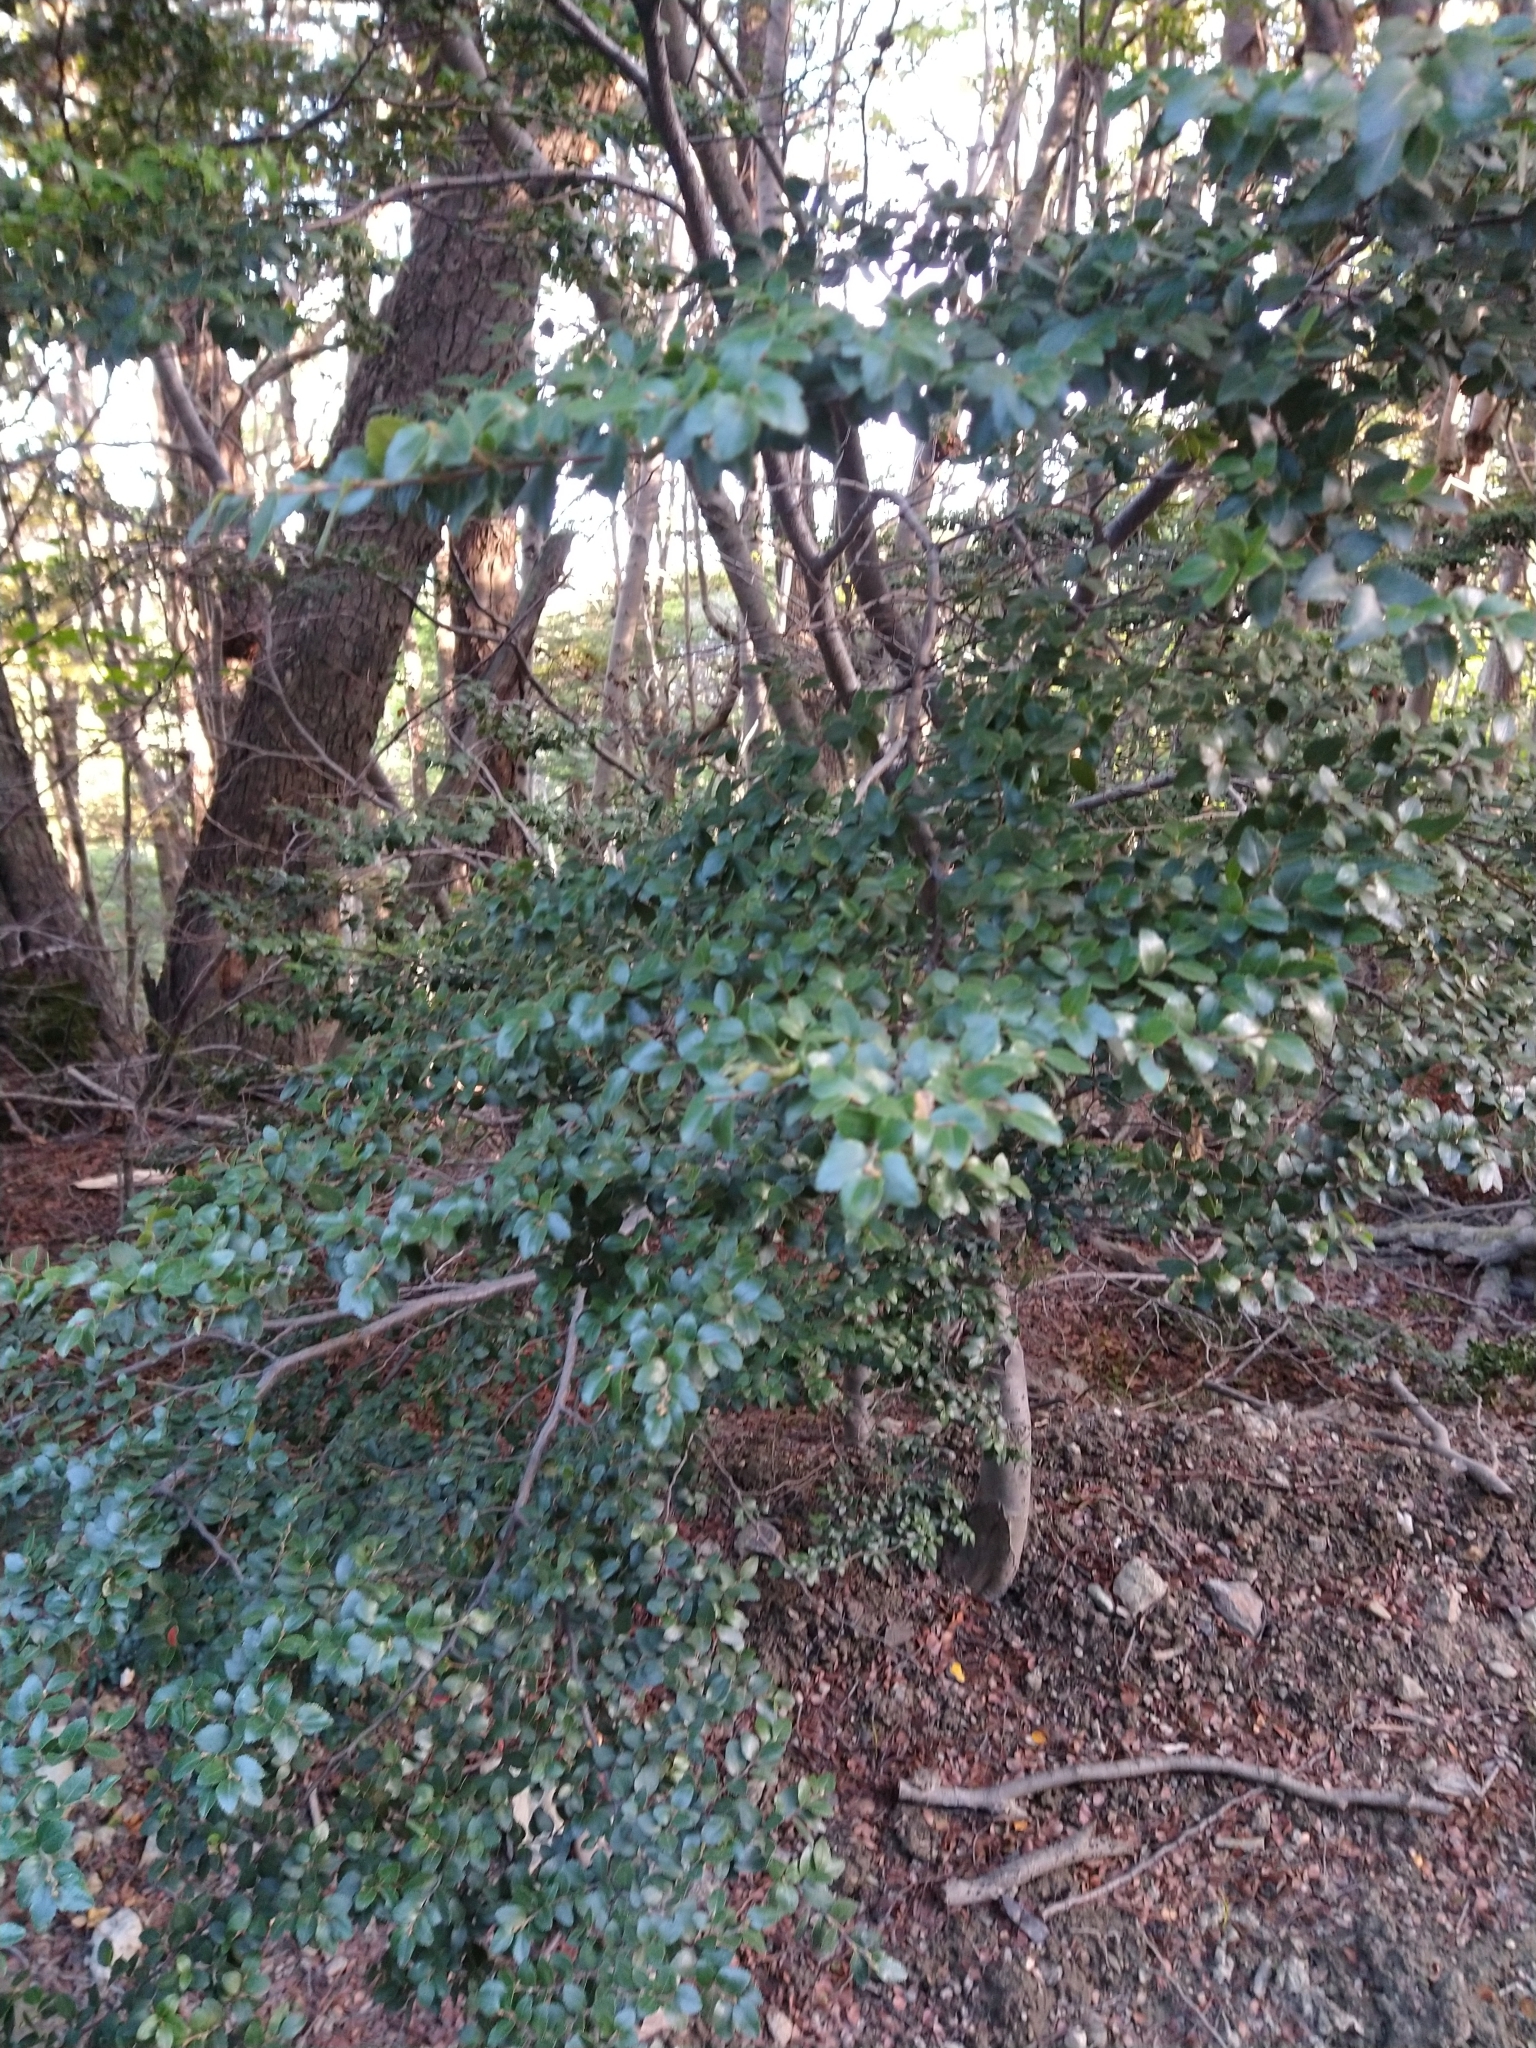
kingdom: Plantae
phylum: Tracheophyta
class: Magnoliopsida
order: Fagales
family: Nothofagaceae
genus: Nothofagus
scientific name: Nothofagus betuloides
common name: Magellan's beech
